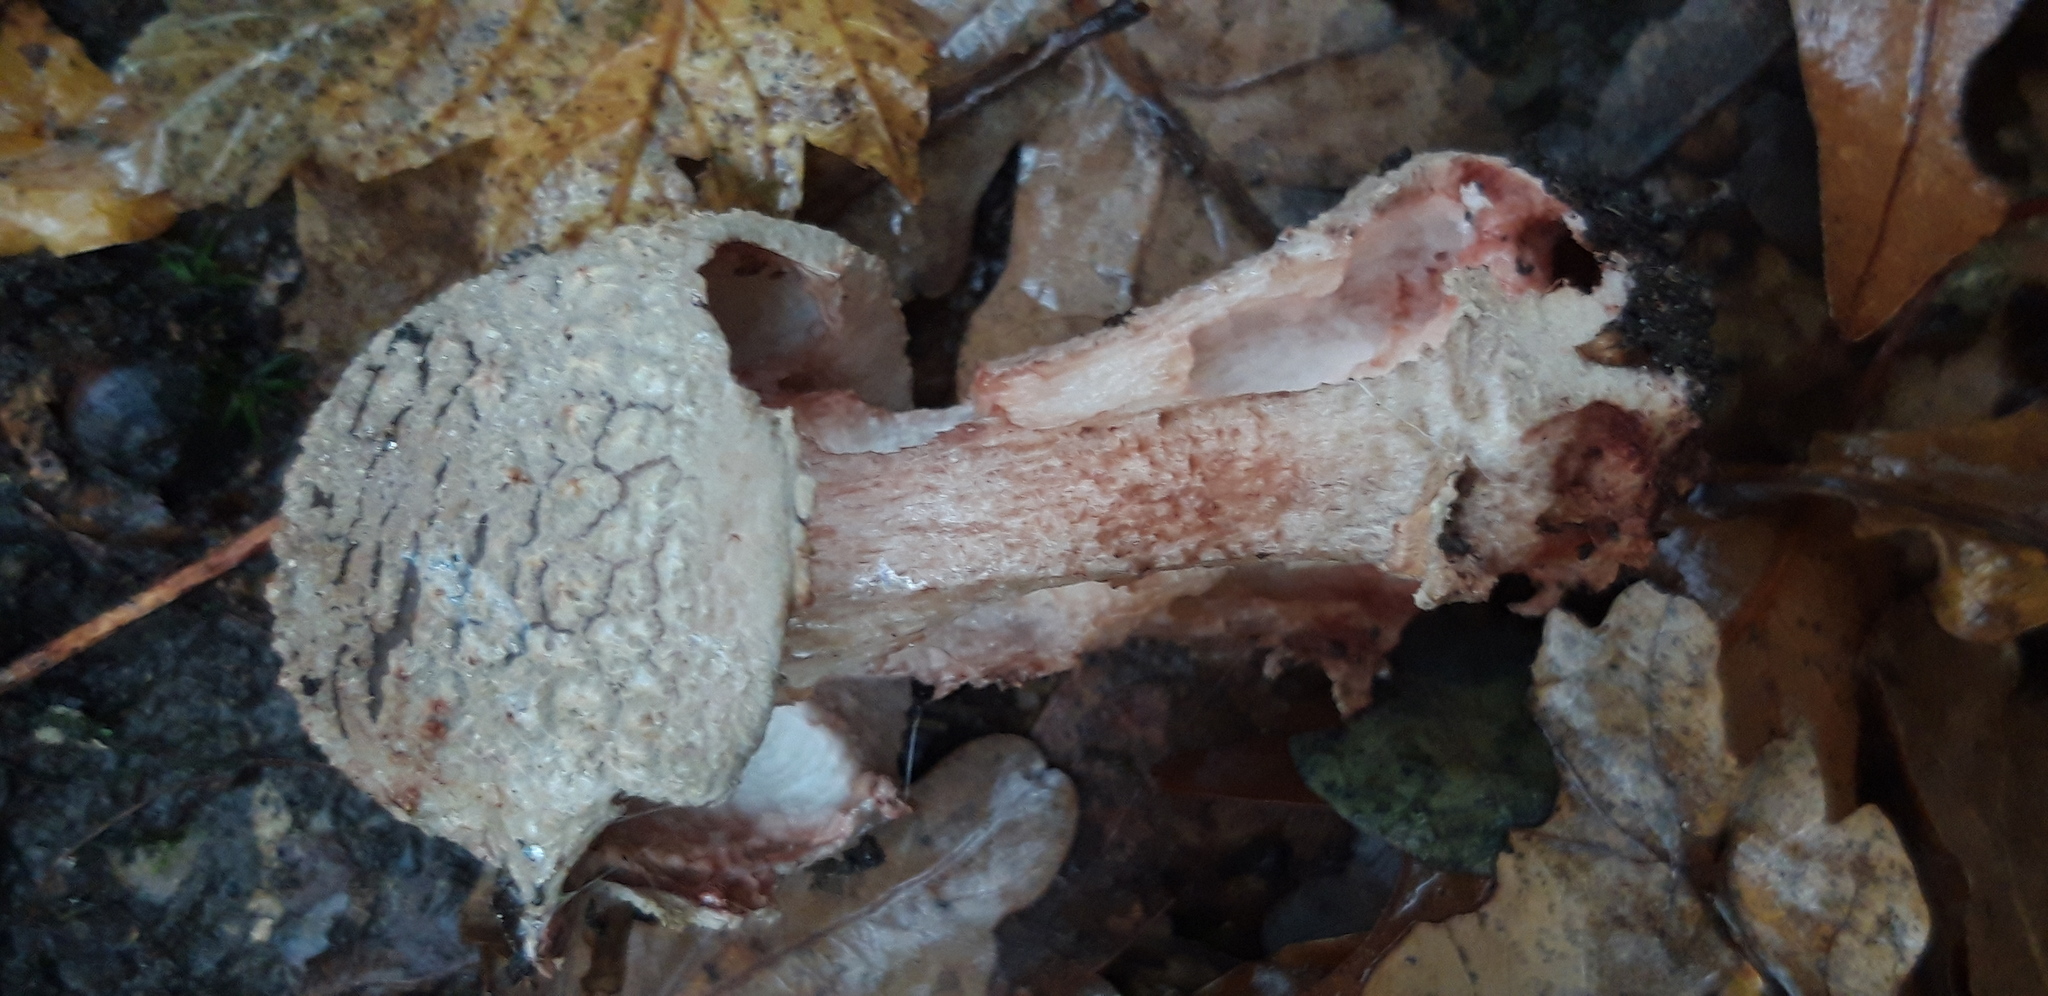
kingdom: Fungi
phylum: Basidiomycota
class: Agaricomycetes
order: Agaricales
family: Amanitaceae
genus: Amanita
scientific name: Amanita rubescens
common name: Blusher
